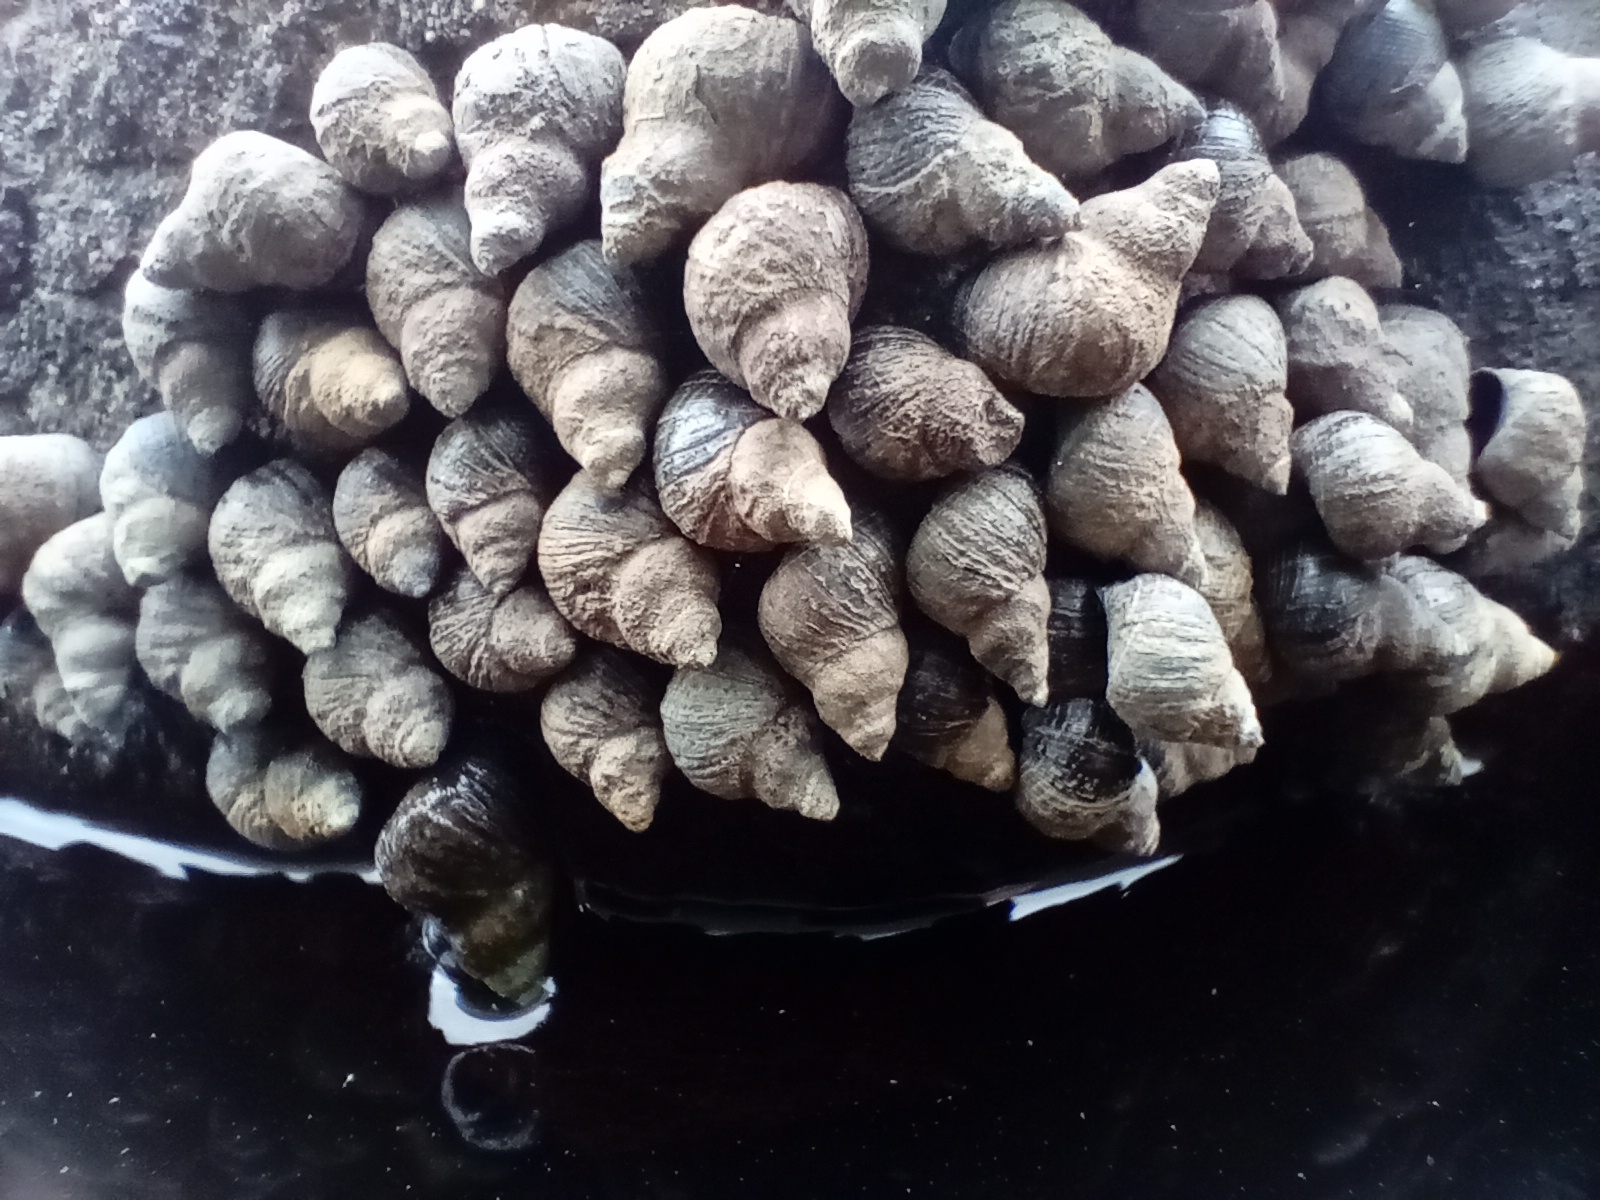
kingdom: Animalia
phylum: Mollusca
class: Gastropoda
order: Littorinimorpha
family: Littorinidae
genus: Austrolittorina
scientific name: Austrolittorina cincta
